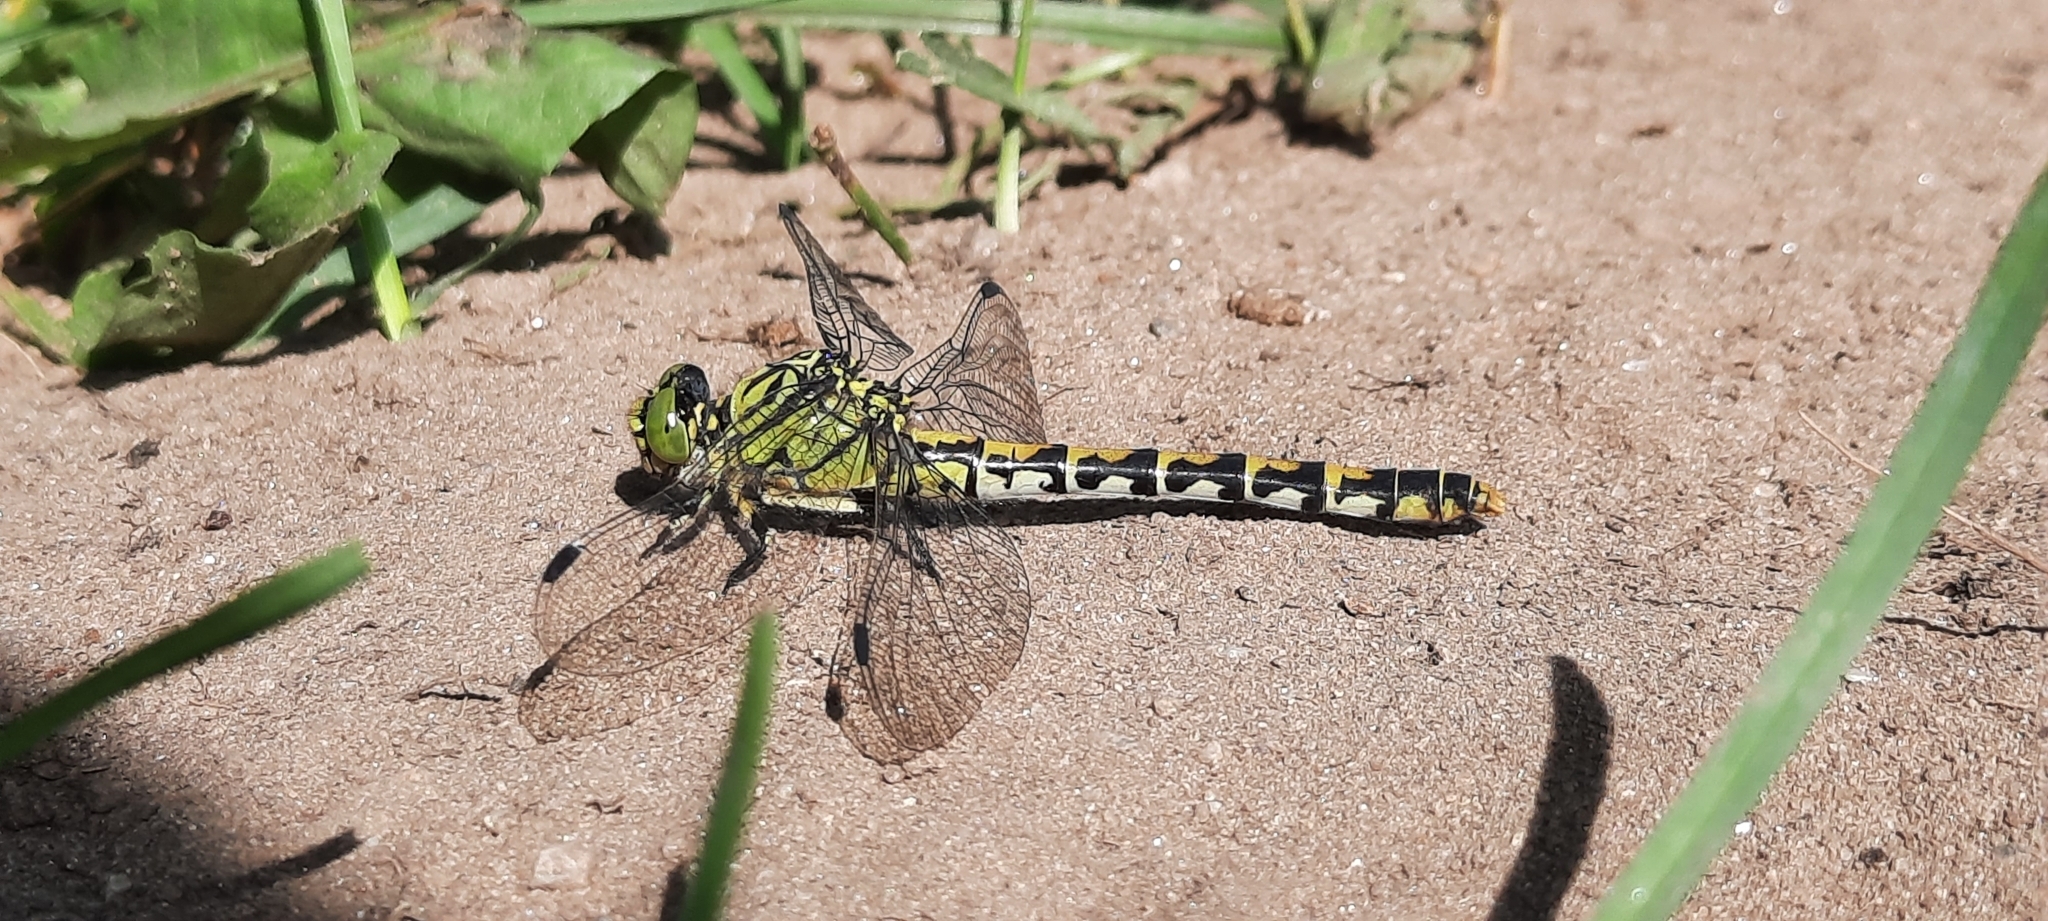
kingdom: Animalia
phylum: Arthropoda
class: Insecta
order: Odonata
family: Gomphidae
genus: Onychogomphus
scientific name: Onychogomphus forcipatus
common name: Small pincertail
